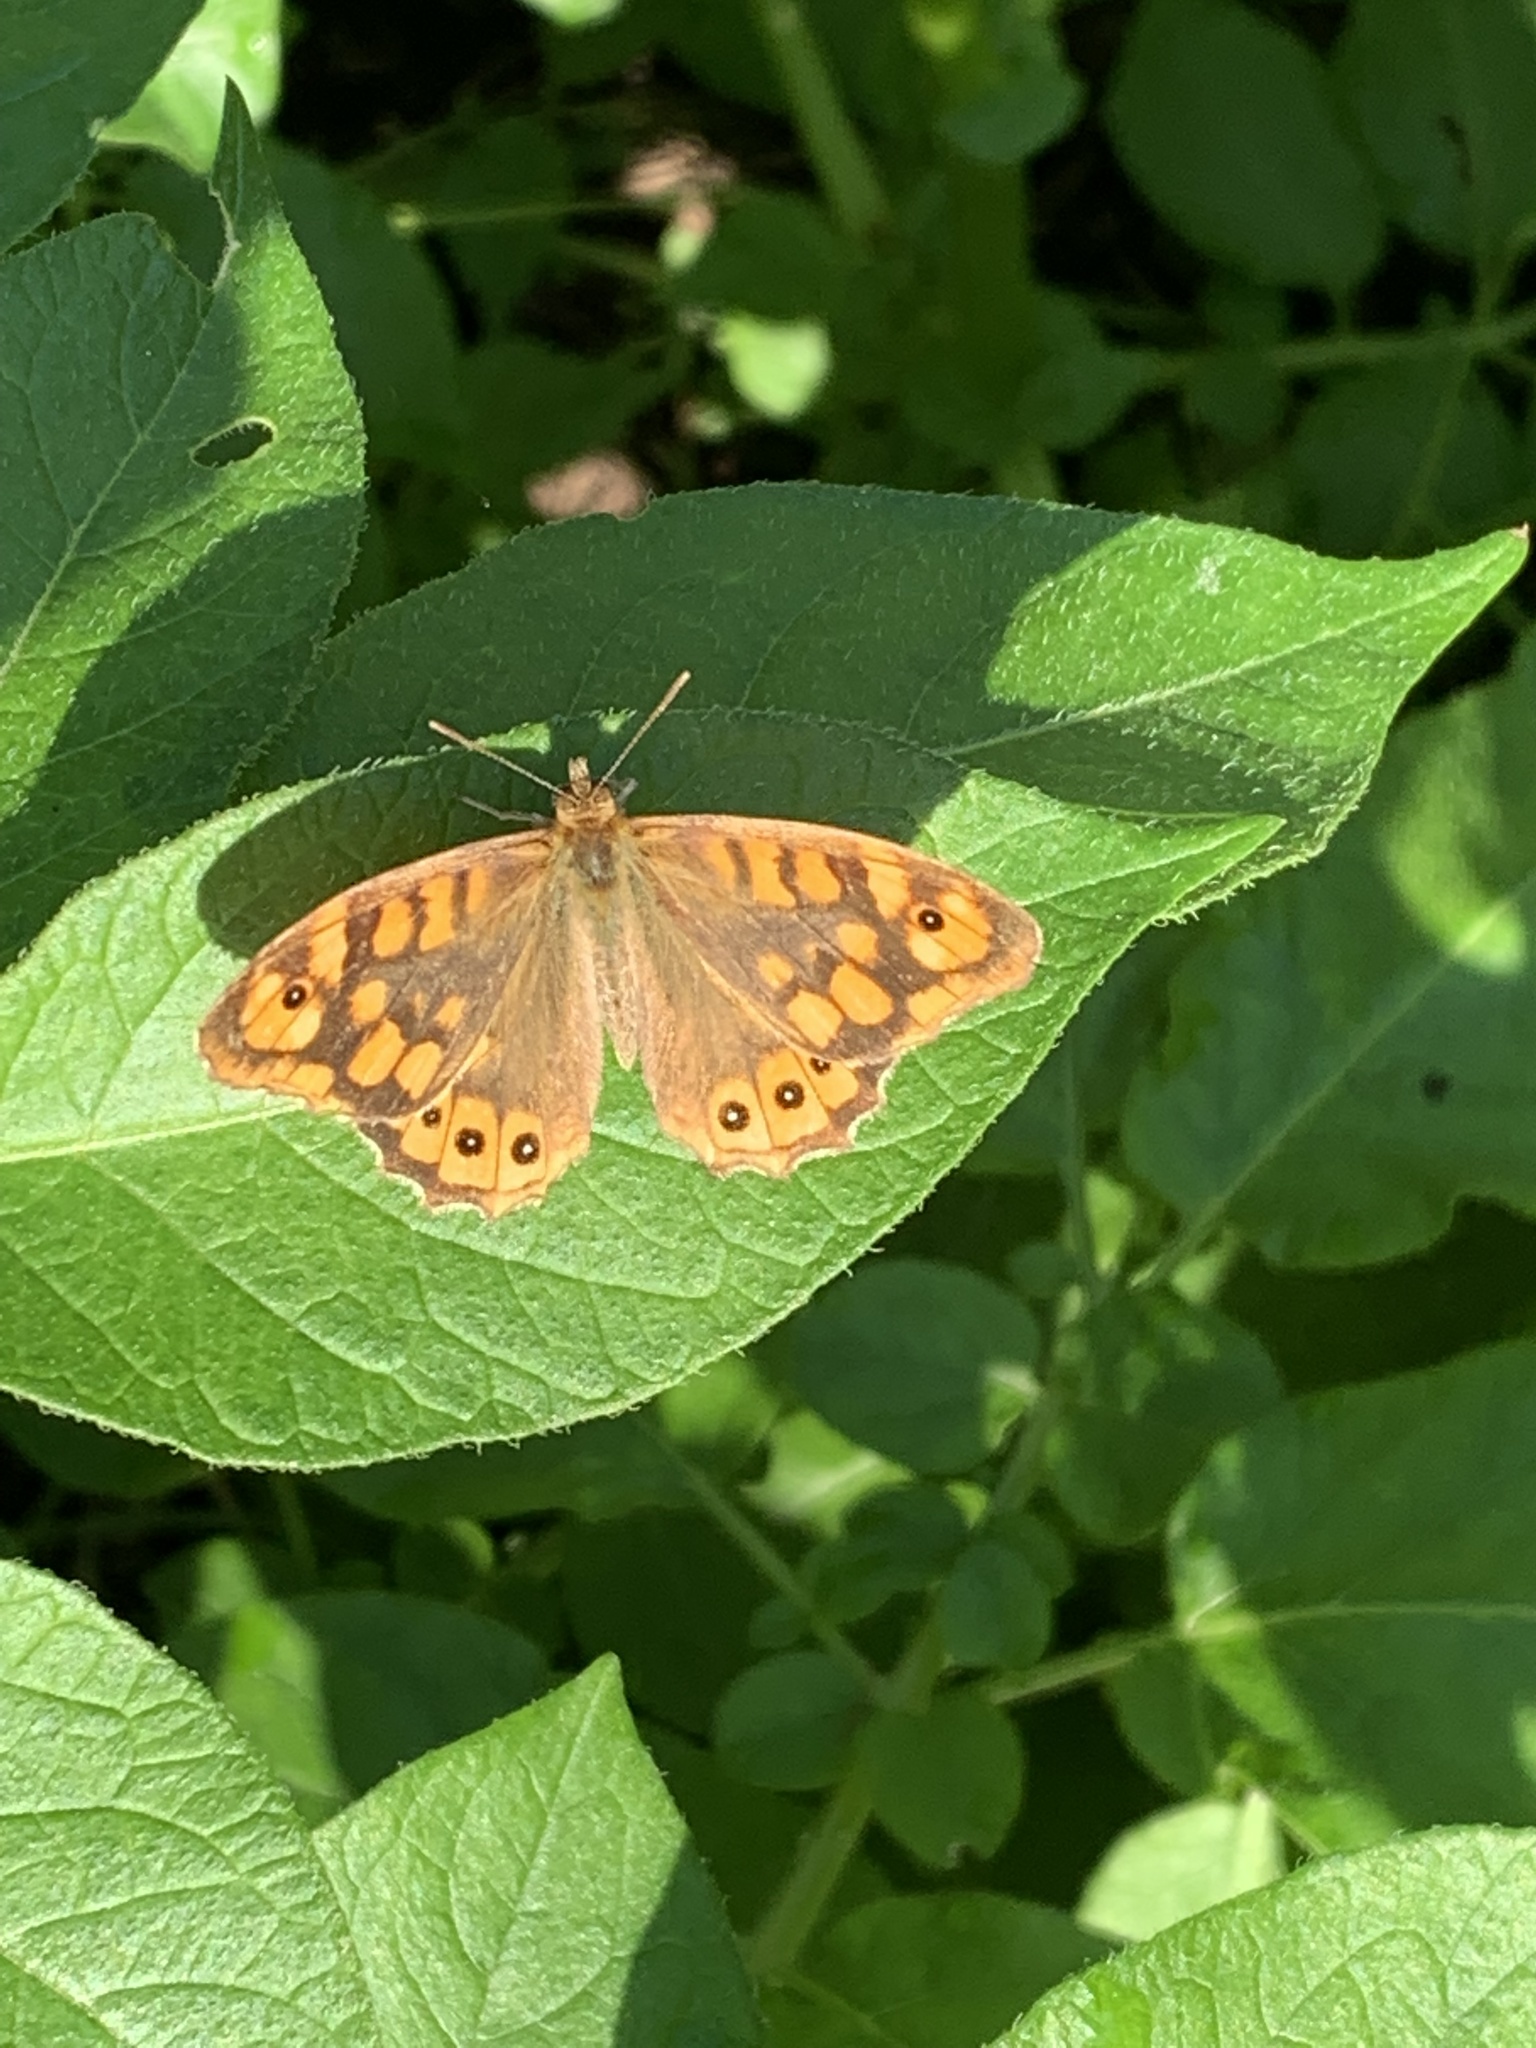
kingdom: Animalia
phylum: Arthropoda
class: Insecta
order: Lepidoptera
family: Nymphalidae
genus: Pararge
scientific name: Pararge aegeria
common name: Speckled wood
